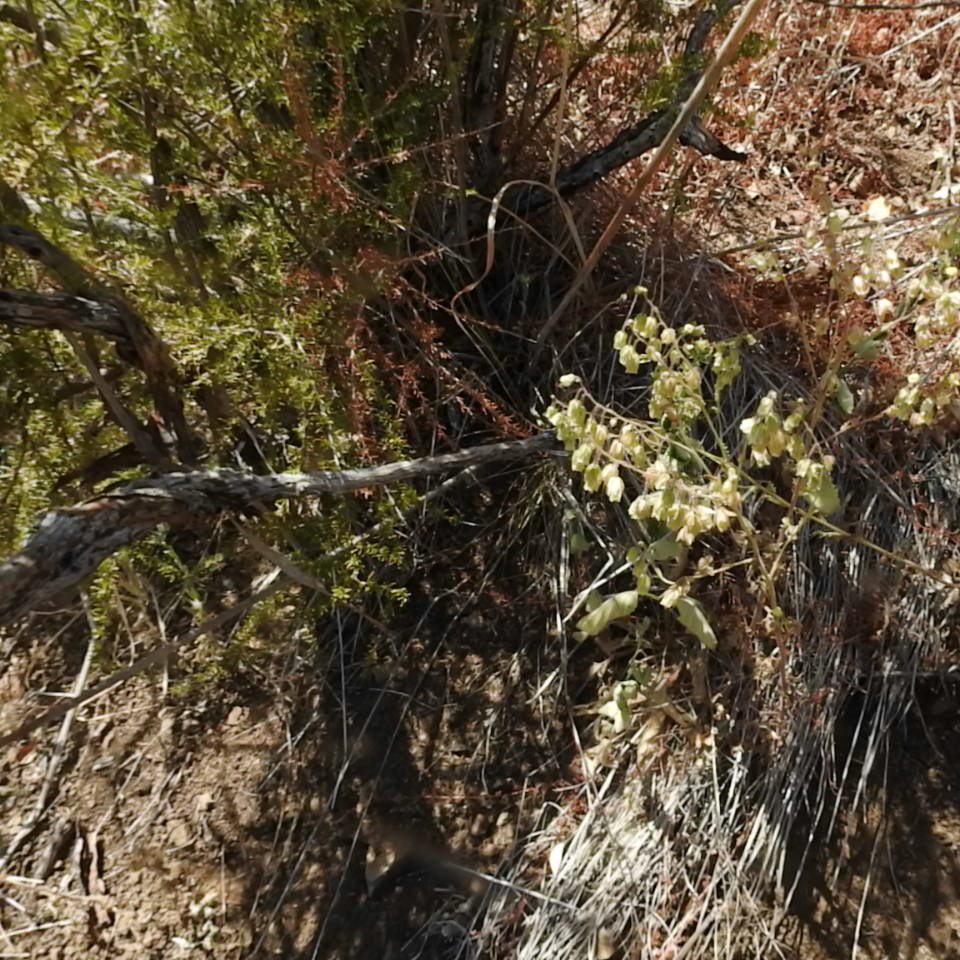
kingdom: Plantae
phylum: Tracheophyta
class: Magnoliopsida
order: Rosales
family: Rosaceae
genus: Adenostoma
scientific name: Adenostoma fasciculatum
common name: Chamise
